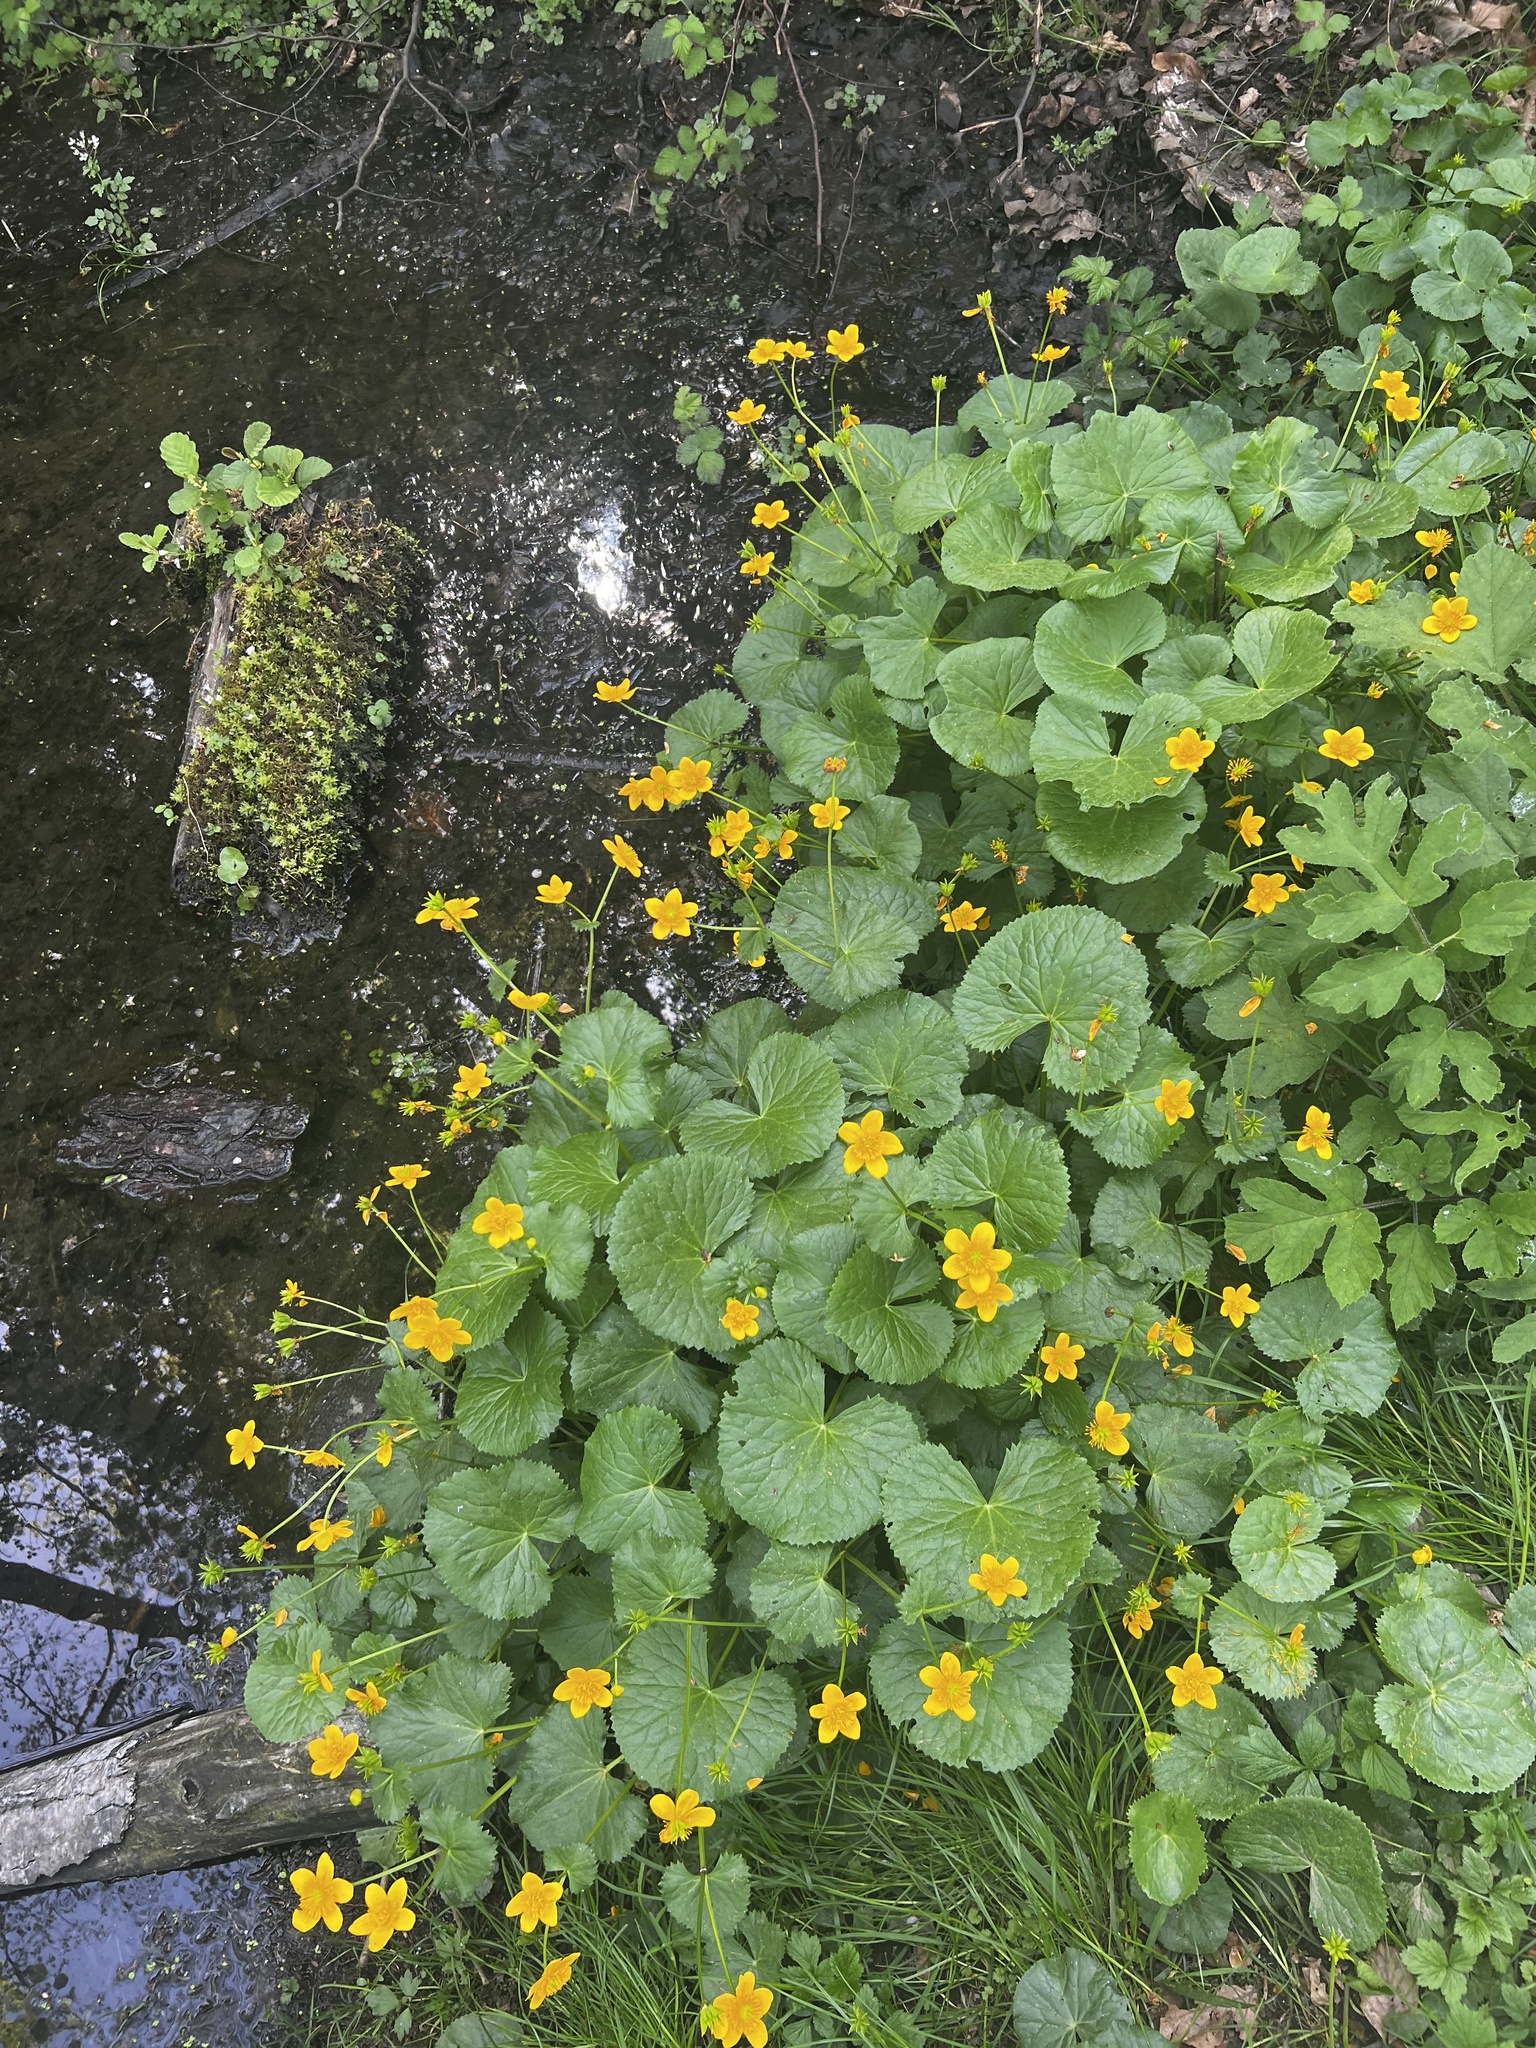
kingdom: Plantae
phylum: Tracheophyta
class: Magnoliopsida
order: Ranunculales
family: Ranunculaceae
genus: Caltha
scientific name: Caltha palustris
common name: Marsh marigold
